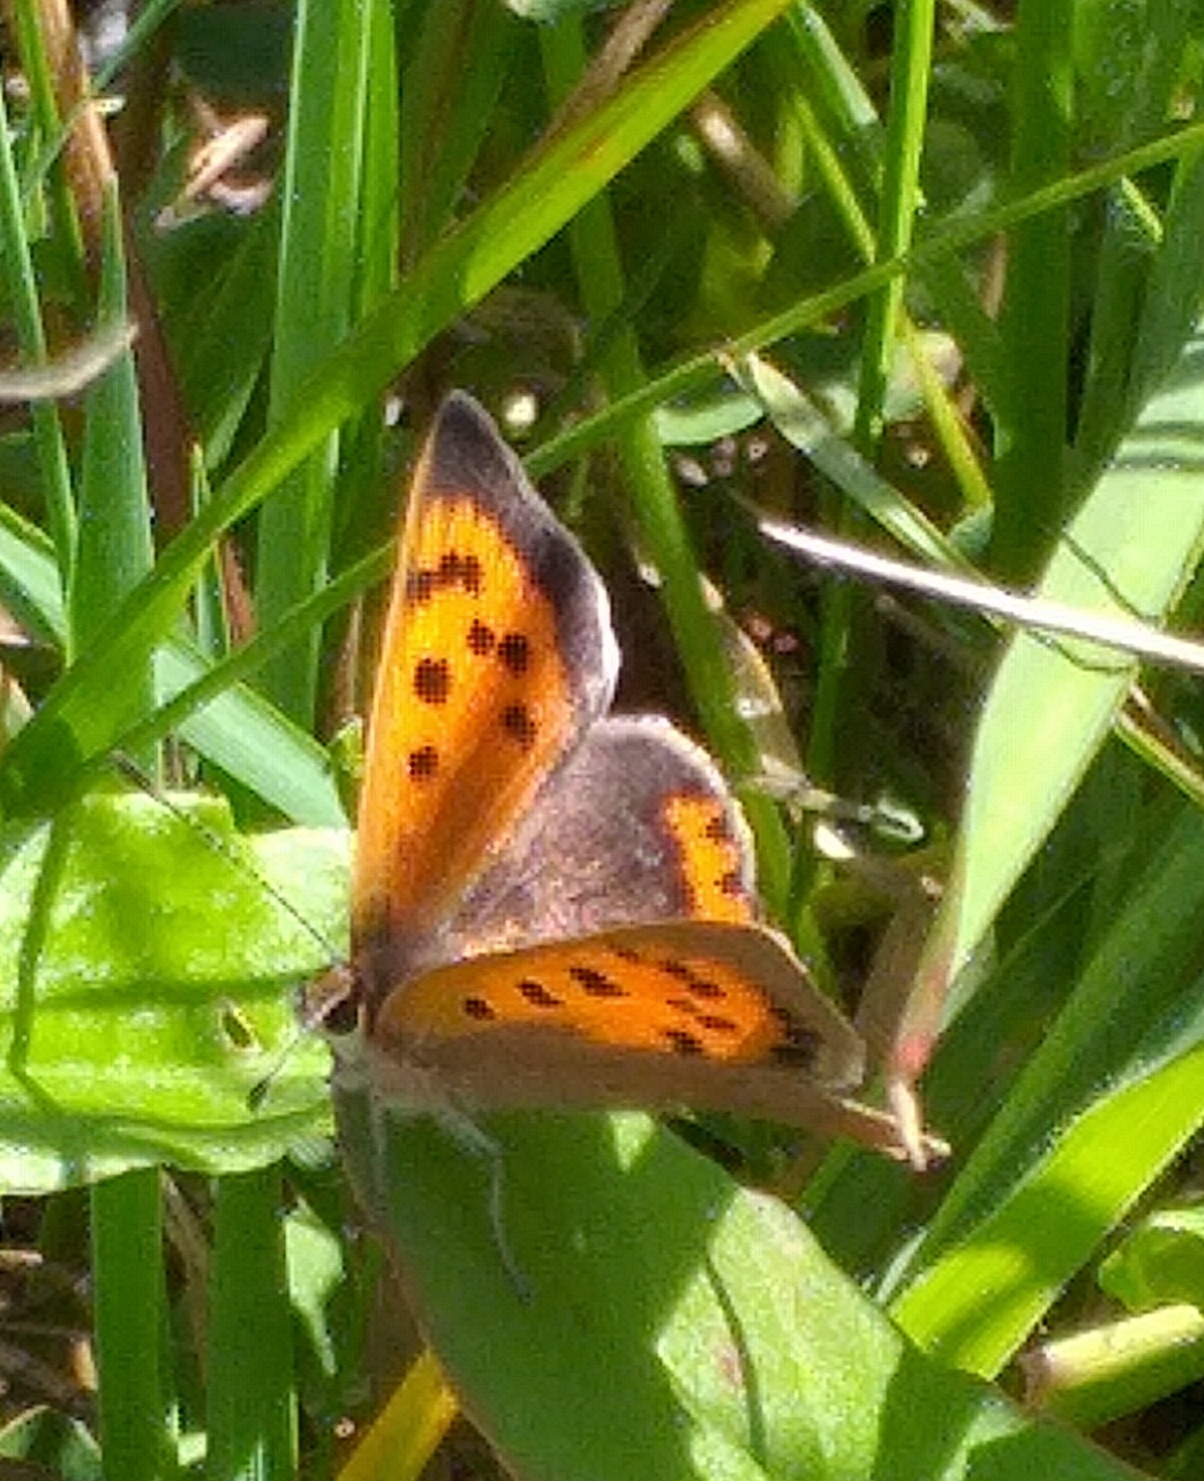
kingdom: Animalia
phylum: Arthropoda
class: Insecta
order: Lepidoptera
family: Lycaenidae
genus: Lycaena
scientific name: Lycaena phlaeas
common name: Small copper
